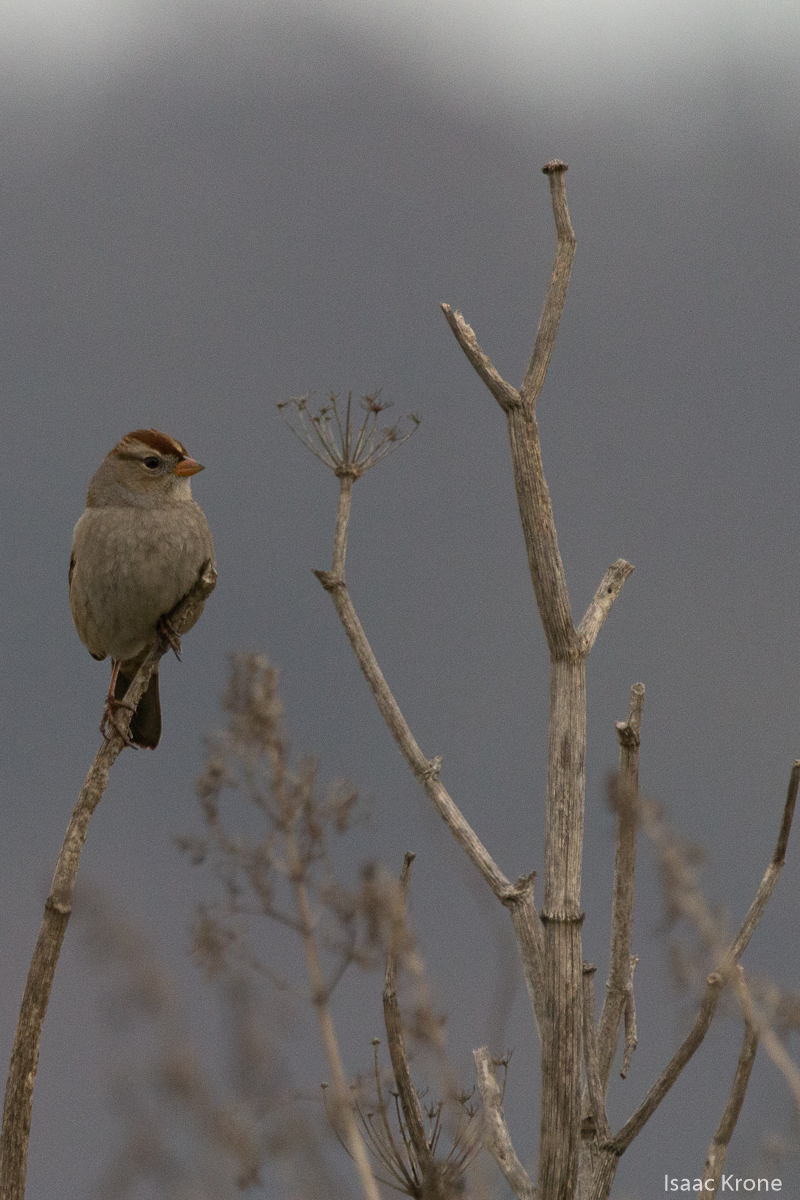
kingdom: Animalia
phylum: Chordata
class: Aves
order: Passeriformes
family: Passerellidae
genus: Zonotrichia
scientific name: Zonotrichia leucophrys
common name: White-crowned sparrow
